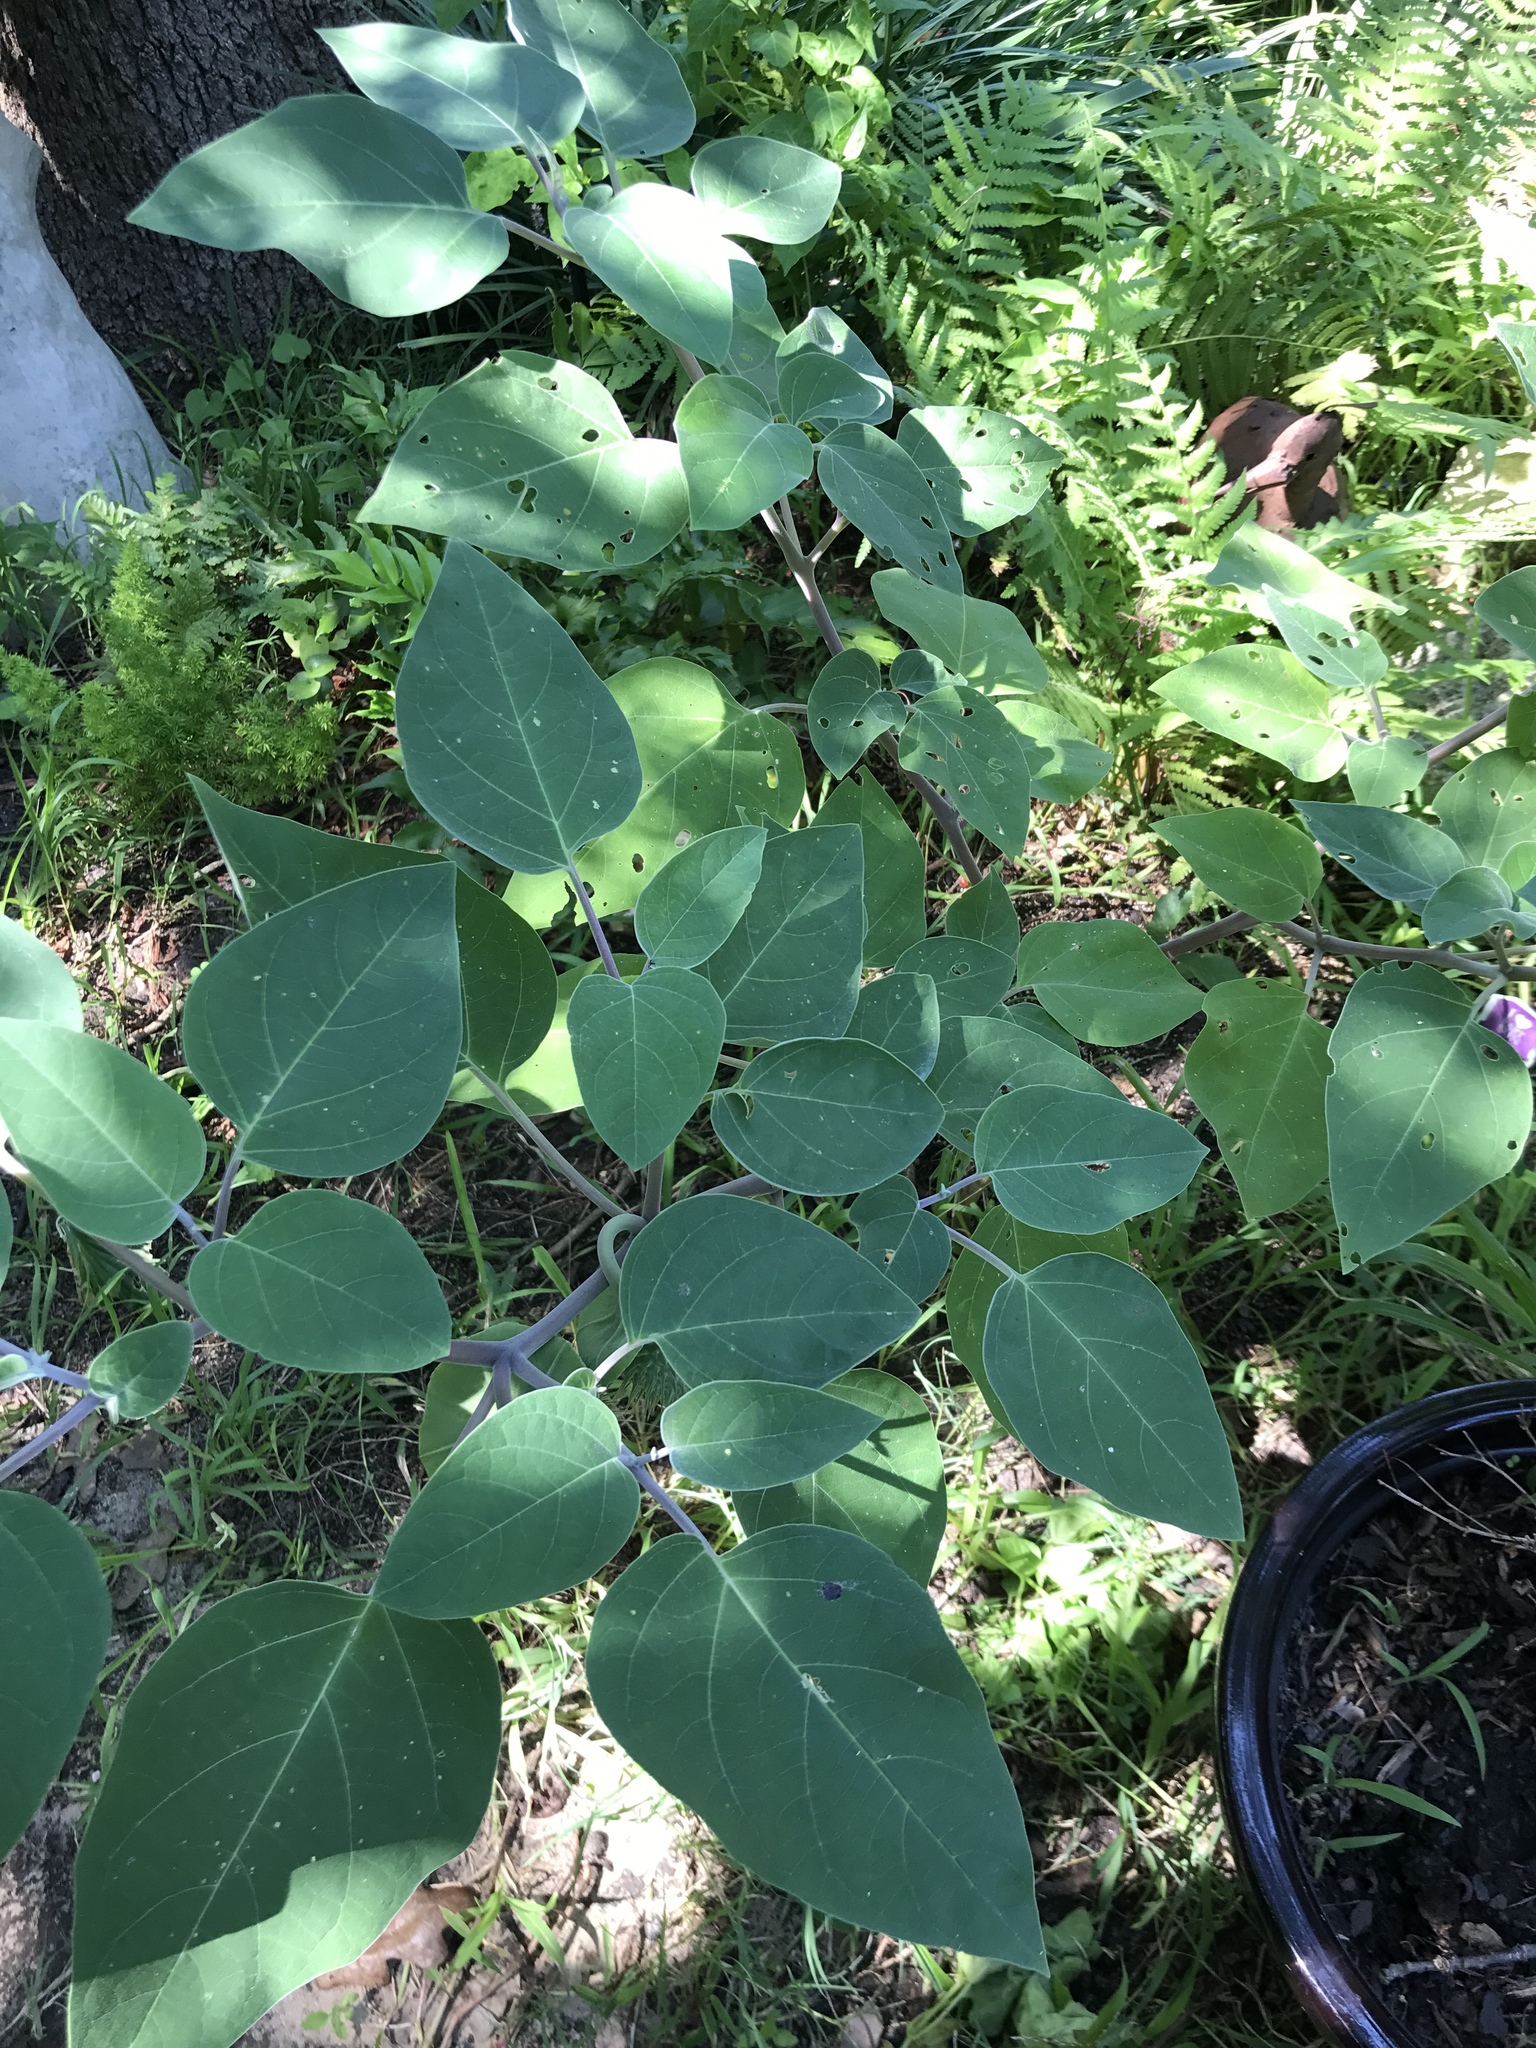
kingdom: Plantae
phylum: Tracheophyta
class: Magnoliopsida
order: Solanales
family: Solanaceae
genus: Datura
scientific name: Datura innoxia
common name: Downy thorn-apple
